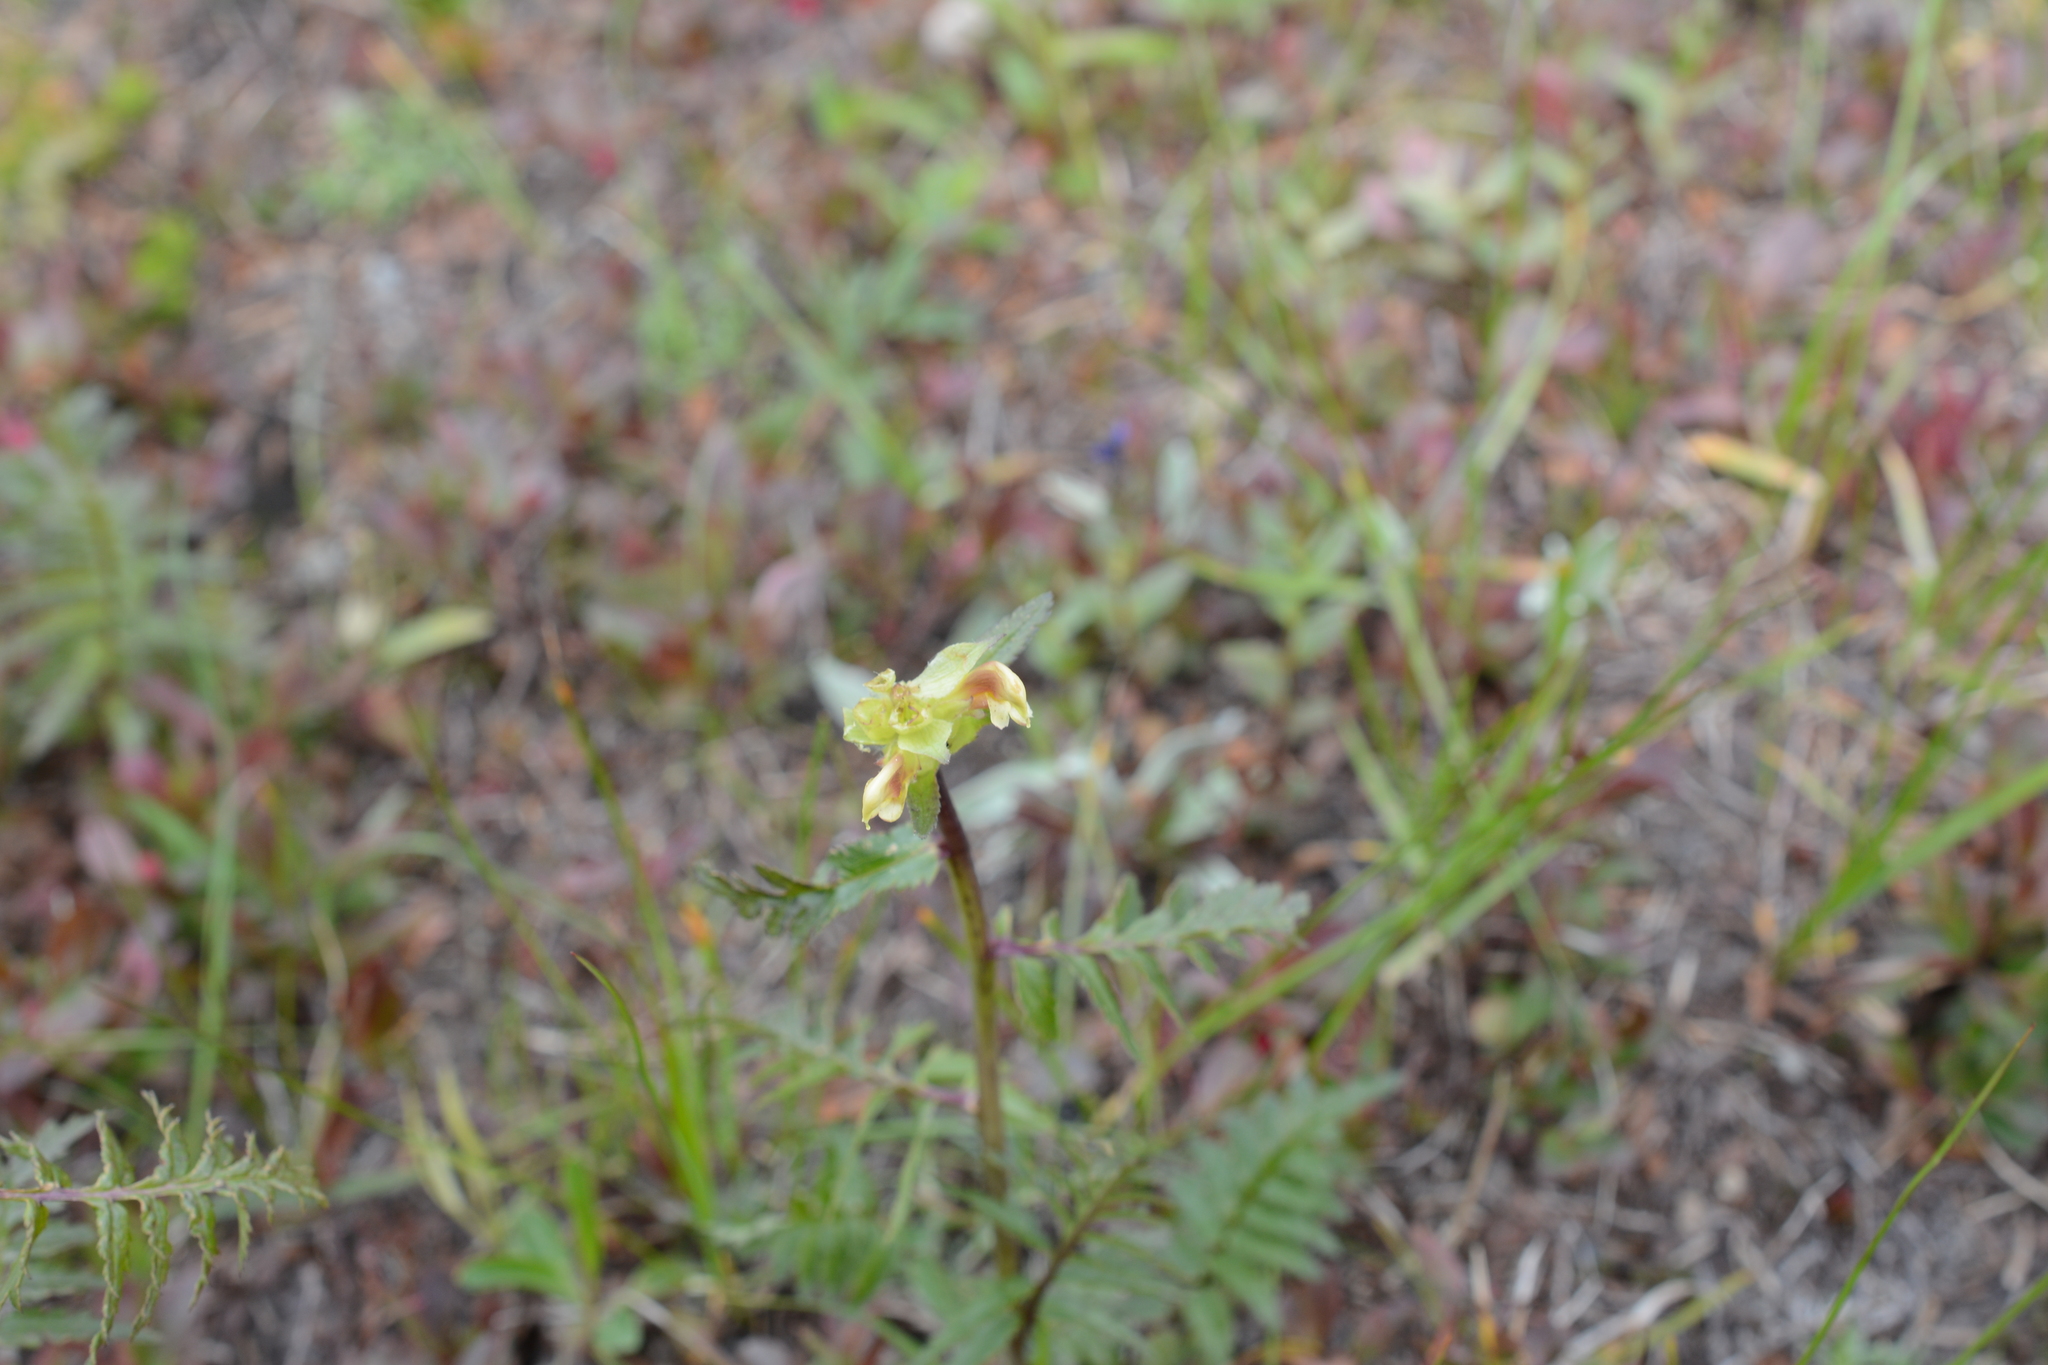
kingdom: Plantae
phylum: Tracheophyta
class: Magnoliopsida
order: Lamiales
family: Orobanchaceae
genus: Pedicularis
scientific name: Pedicularis bracteosa
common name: Bracted lousewort
